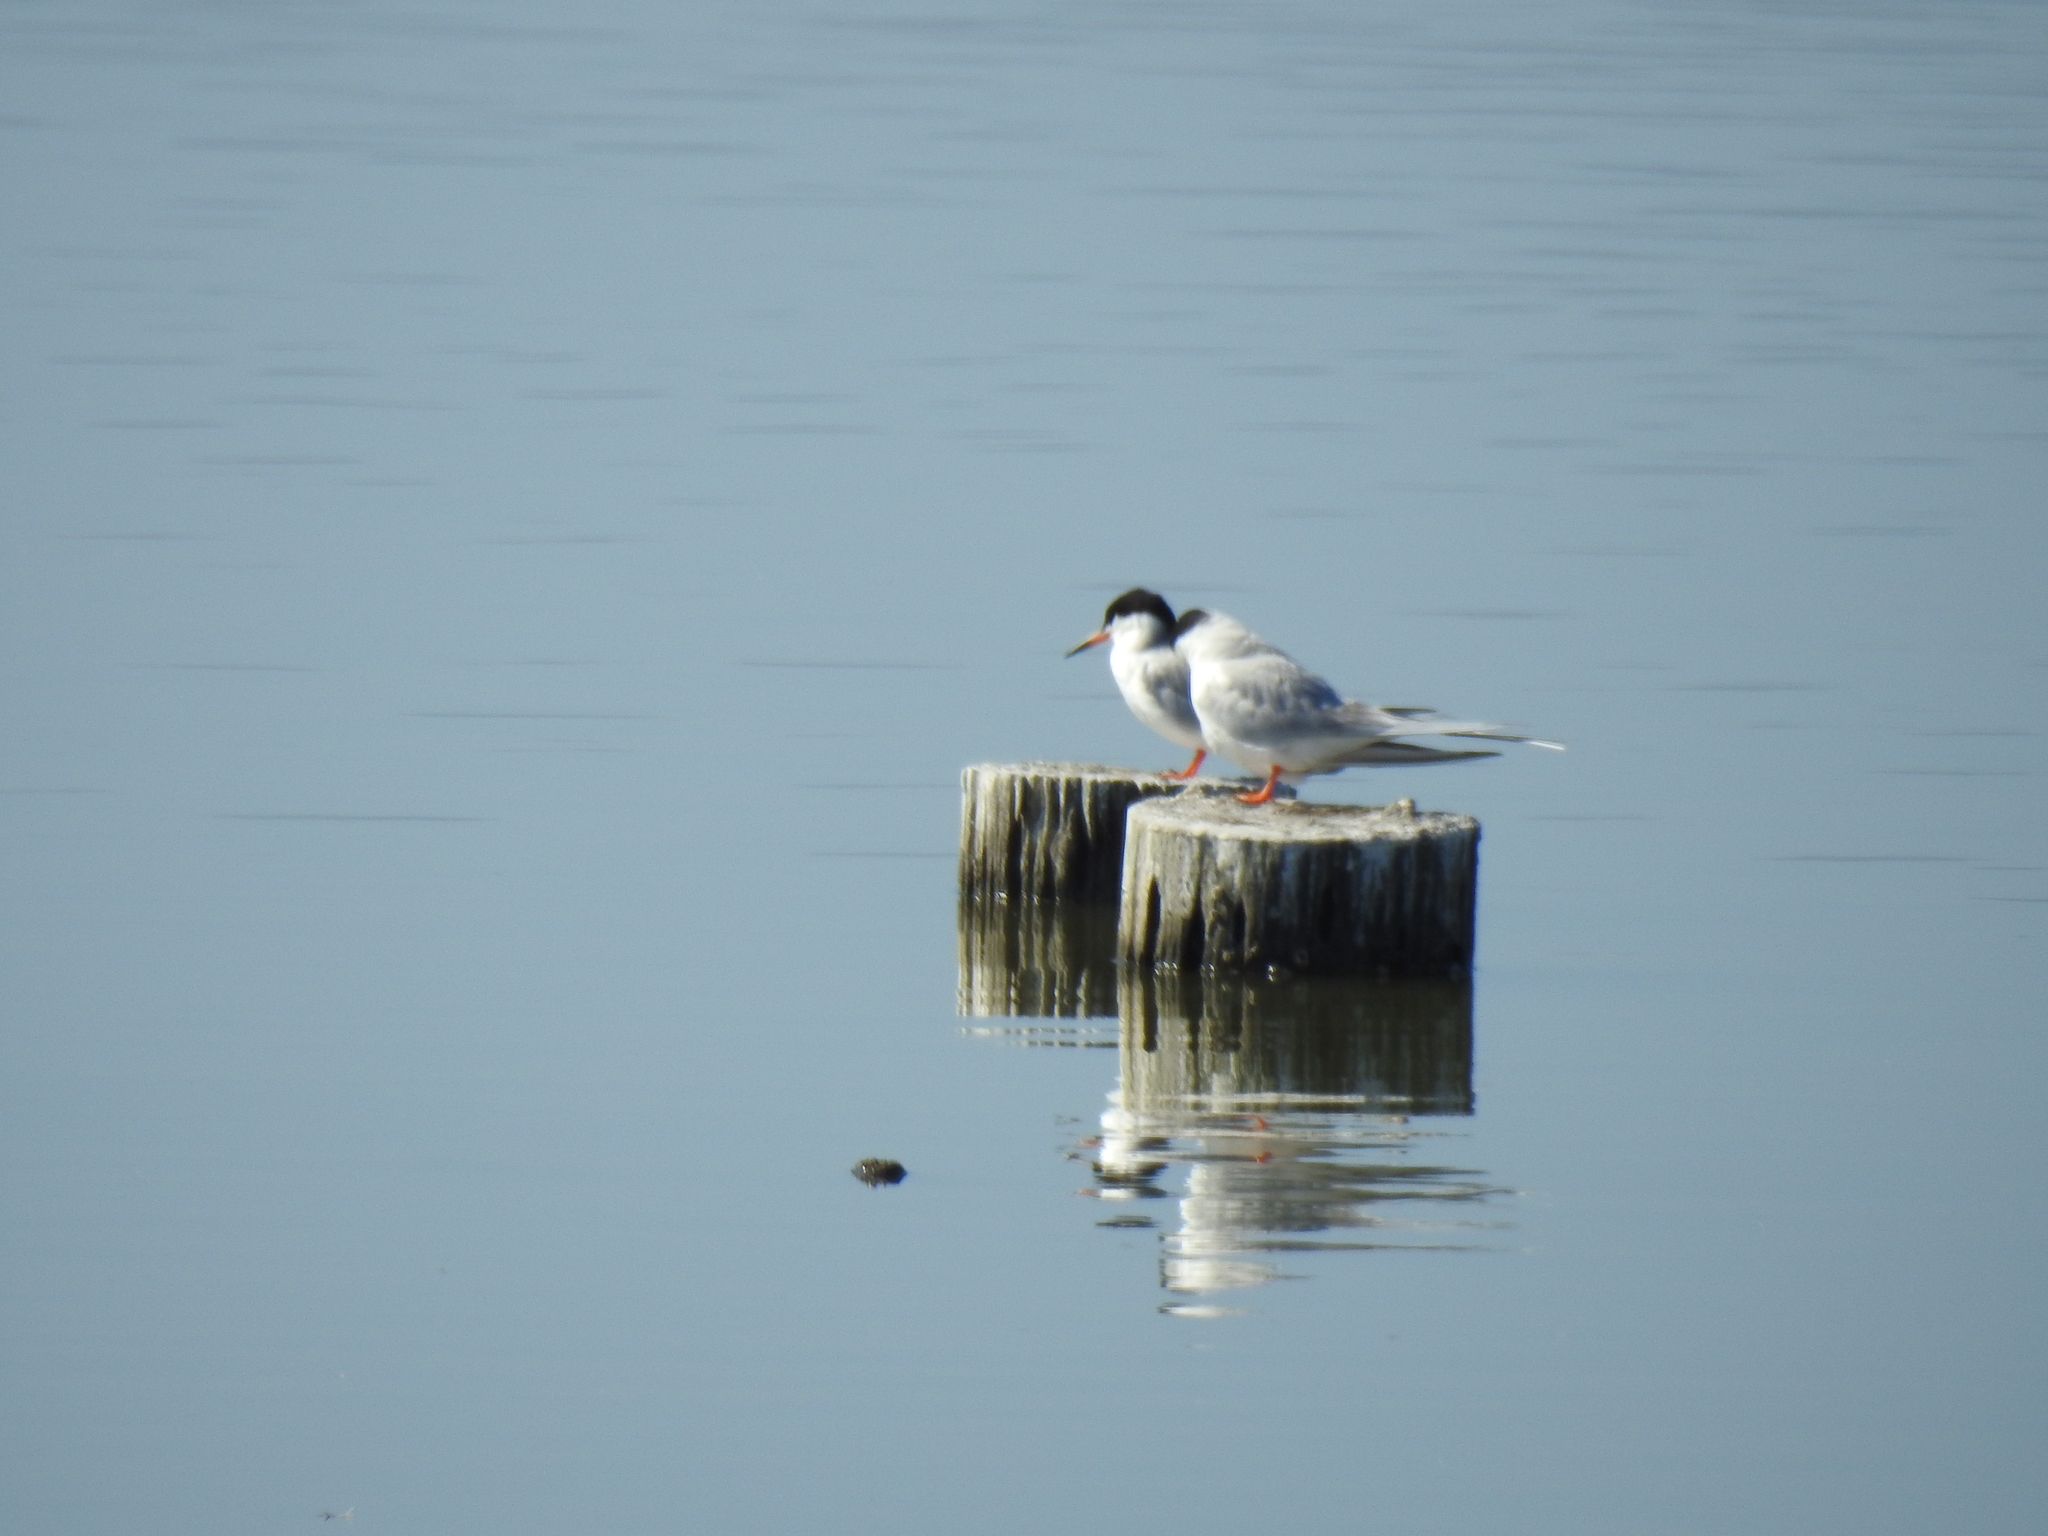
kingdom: Animalia
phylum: Chordata
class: Aves
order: Charadriiformes
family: Laridae
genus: Sterna
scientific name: Sterna forsteri
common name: Forster's tern
